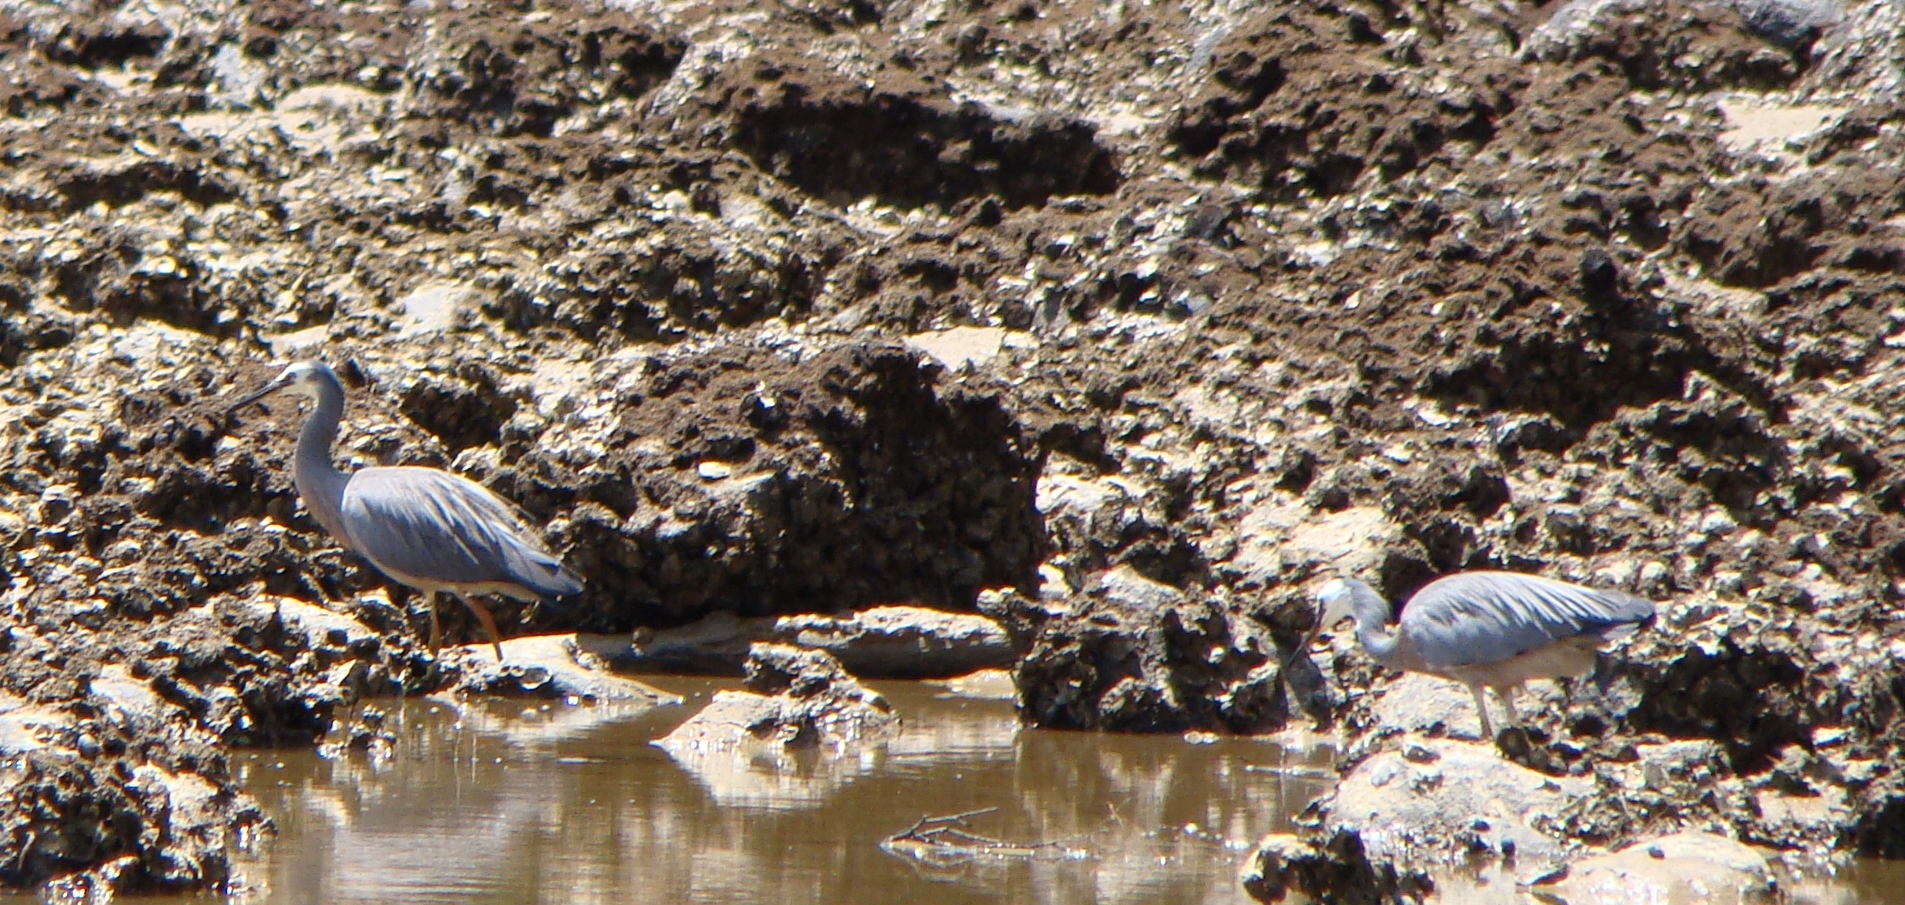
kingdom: Animalia
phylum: Chordata
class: Aves
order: Pelecaniformes
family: Ardeidae
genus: Egretta
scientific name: Egretta novaehollandiae
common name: White-faced heron
